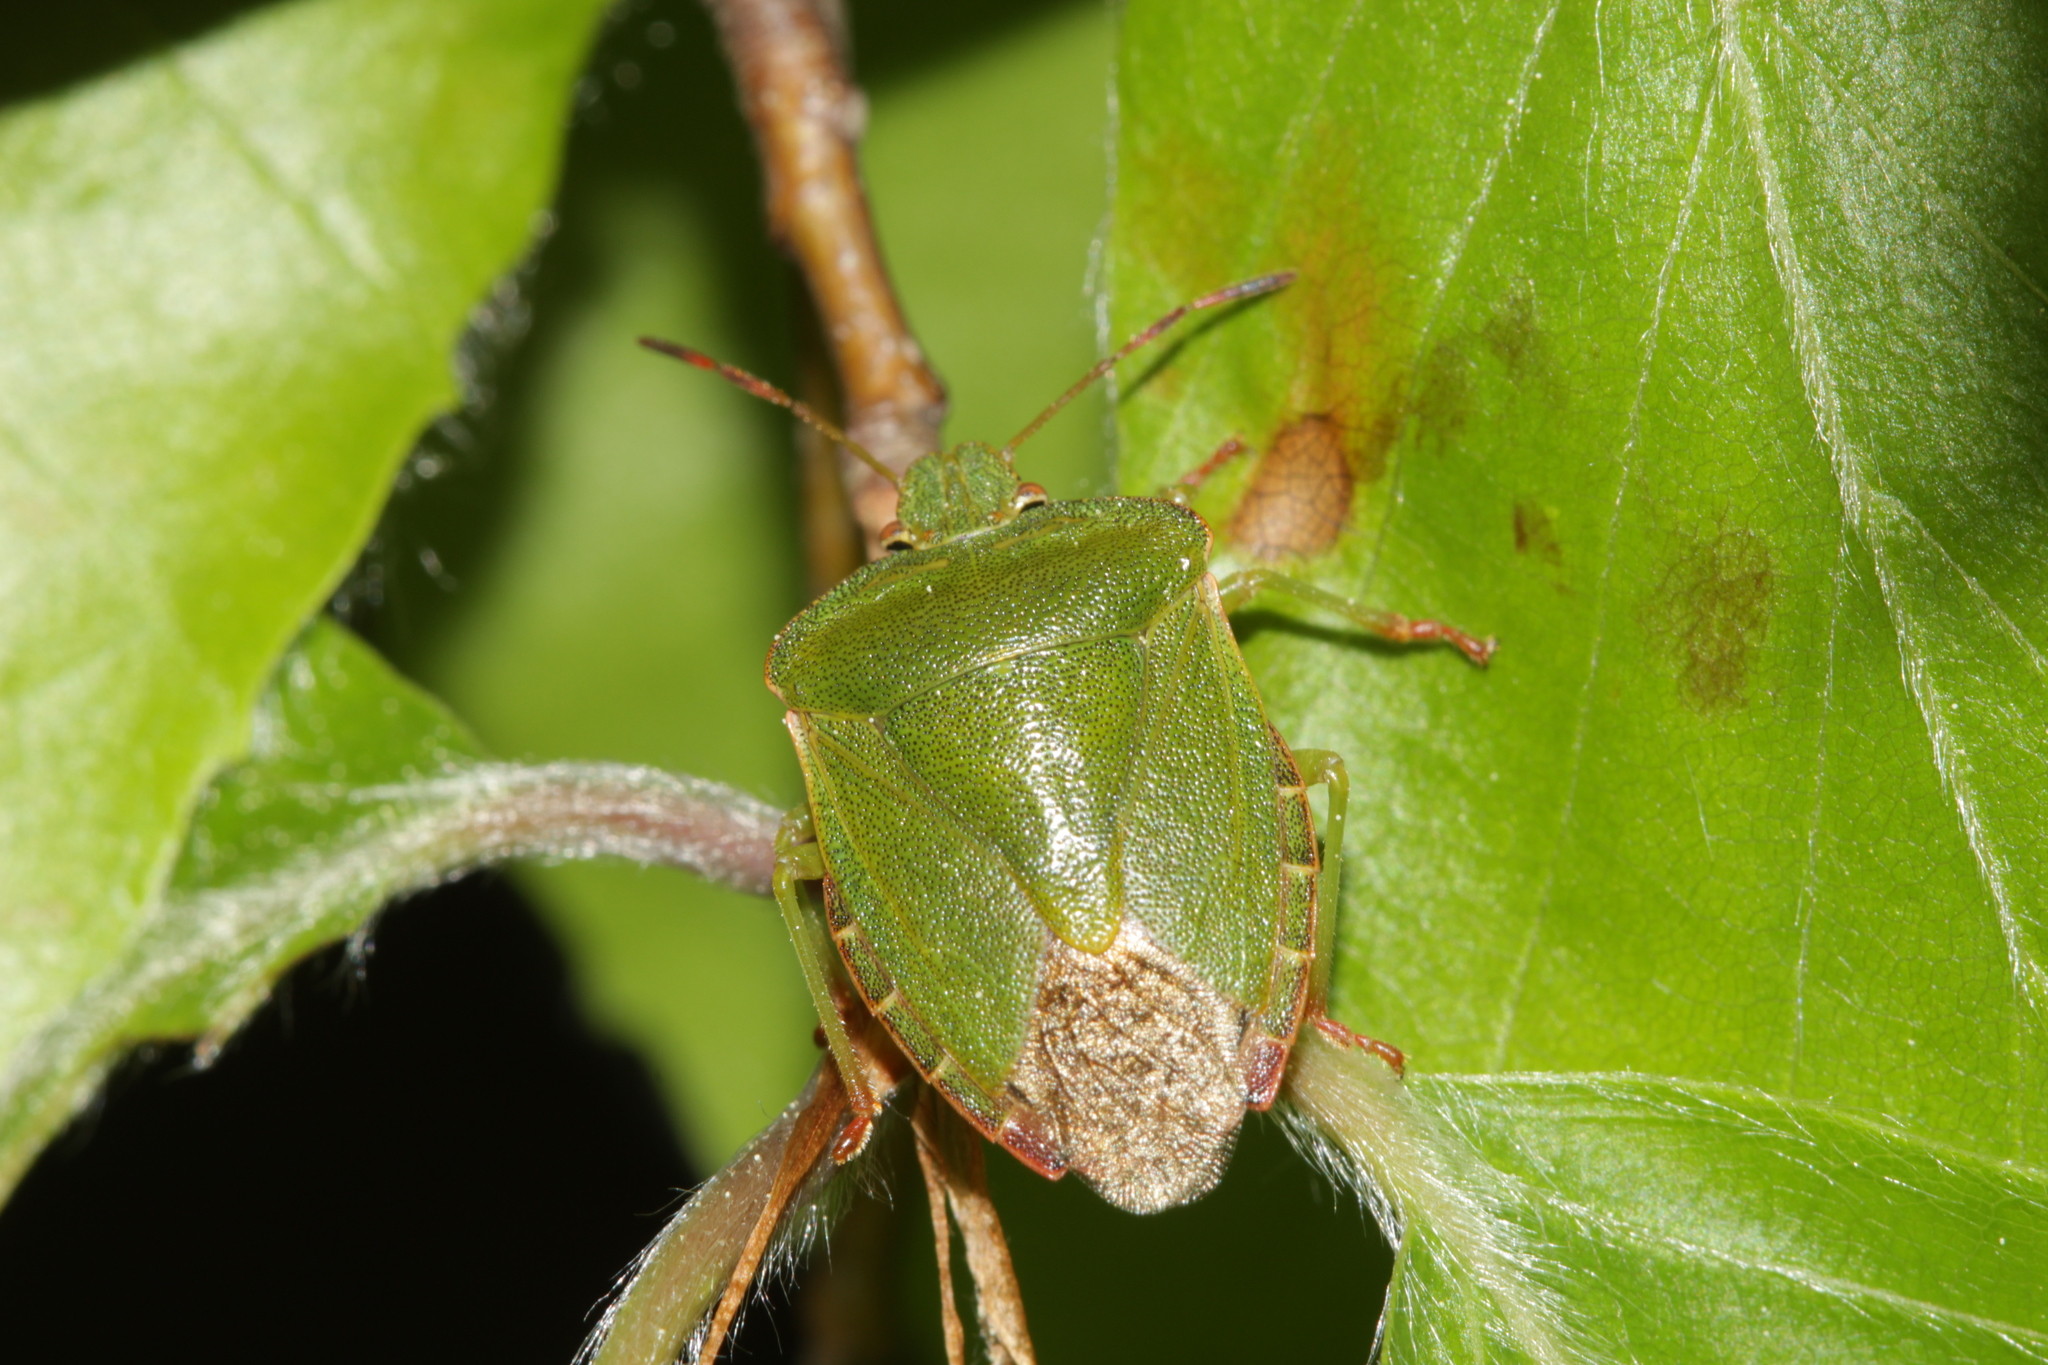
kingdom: Animalia
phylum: Arthropoda
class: Insecta
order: Hemiptera
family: Pentatomidae
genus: Palomena
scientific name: Palomena prasina
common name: Green shieldbug
